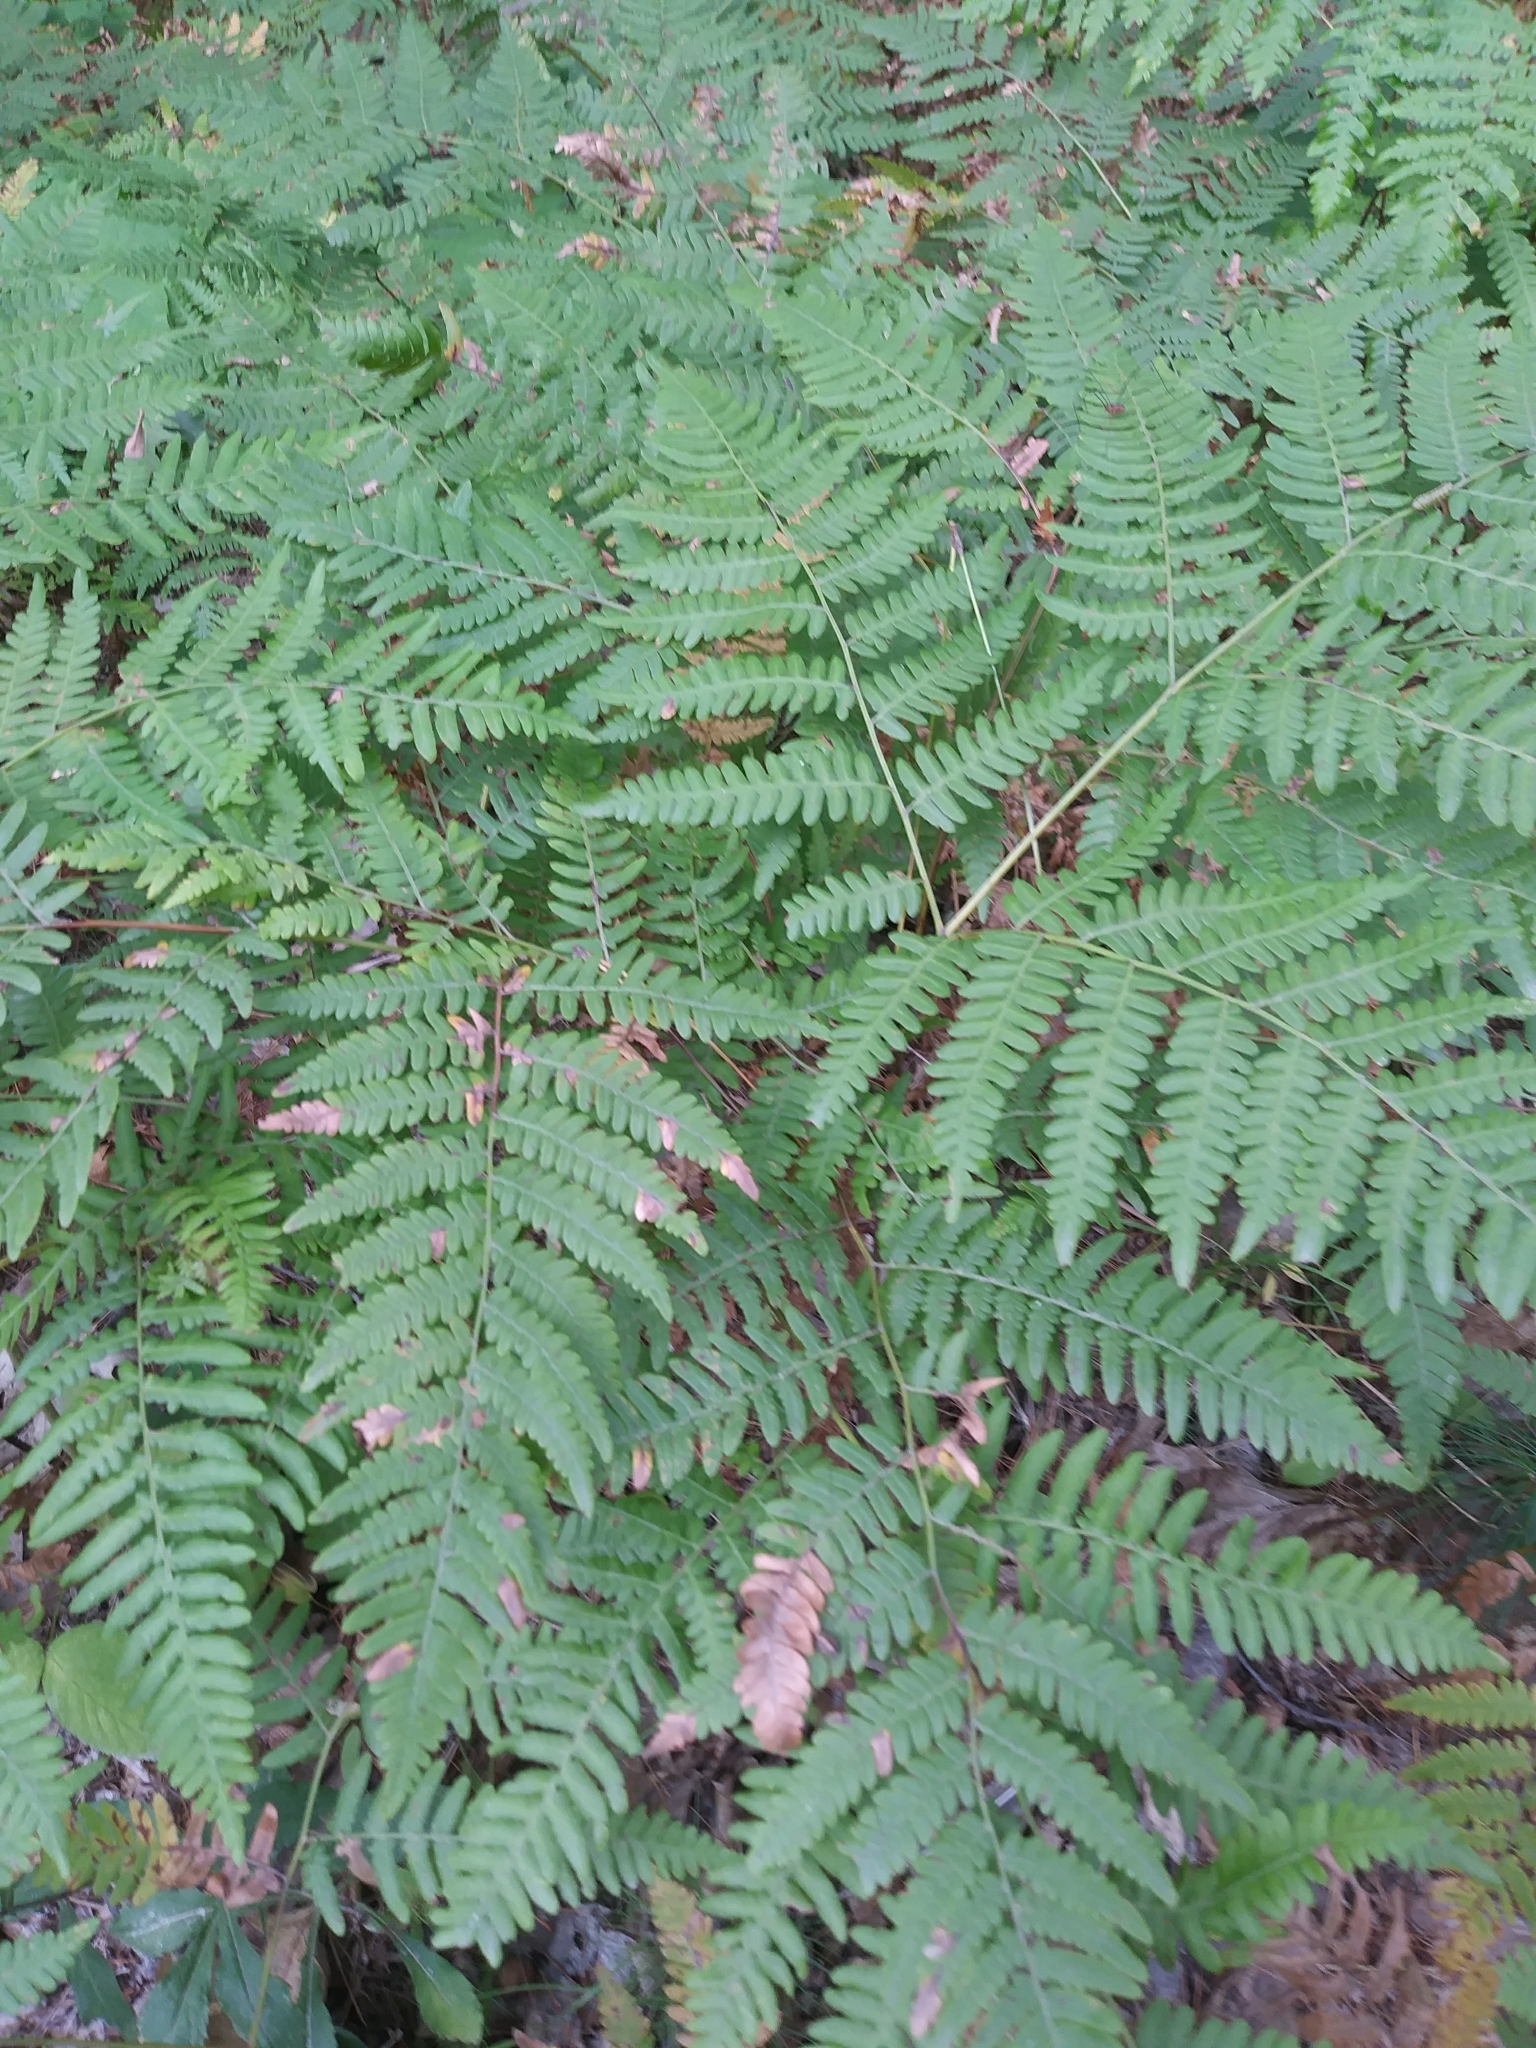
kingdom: Plantae
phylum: Tracheophyta
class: Polypodiopsida
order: Polypodiales
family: Dennstaedtiaceae
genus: Pteridium
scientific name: Pteridium aquilinum
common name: Bracken
